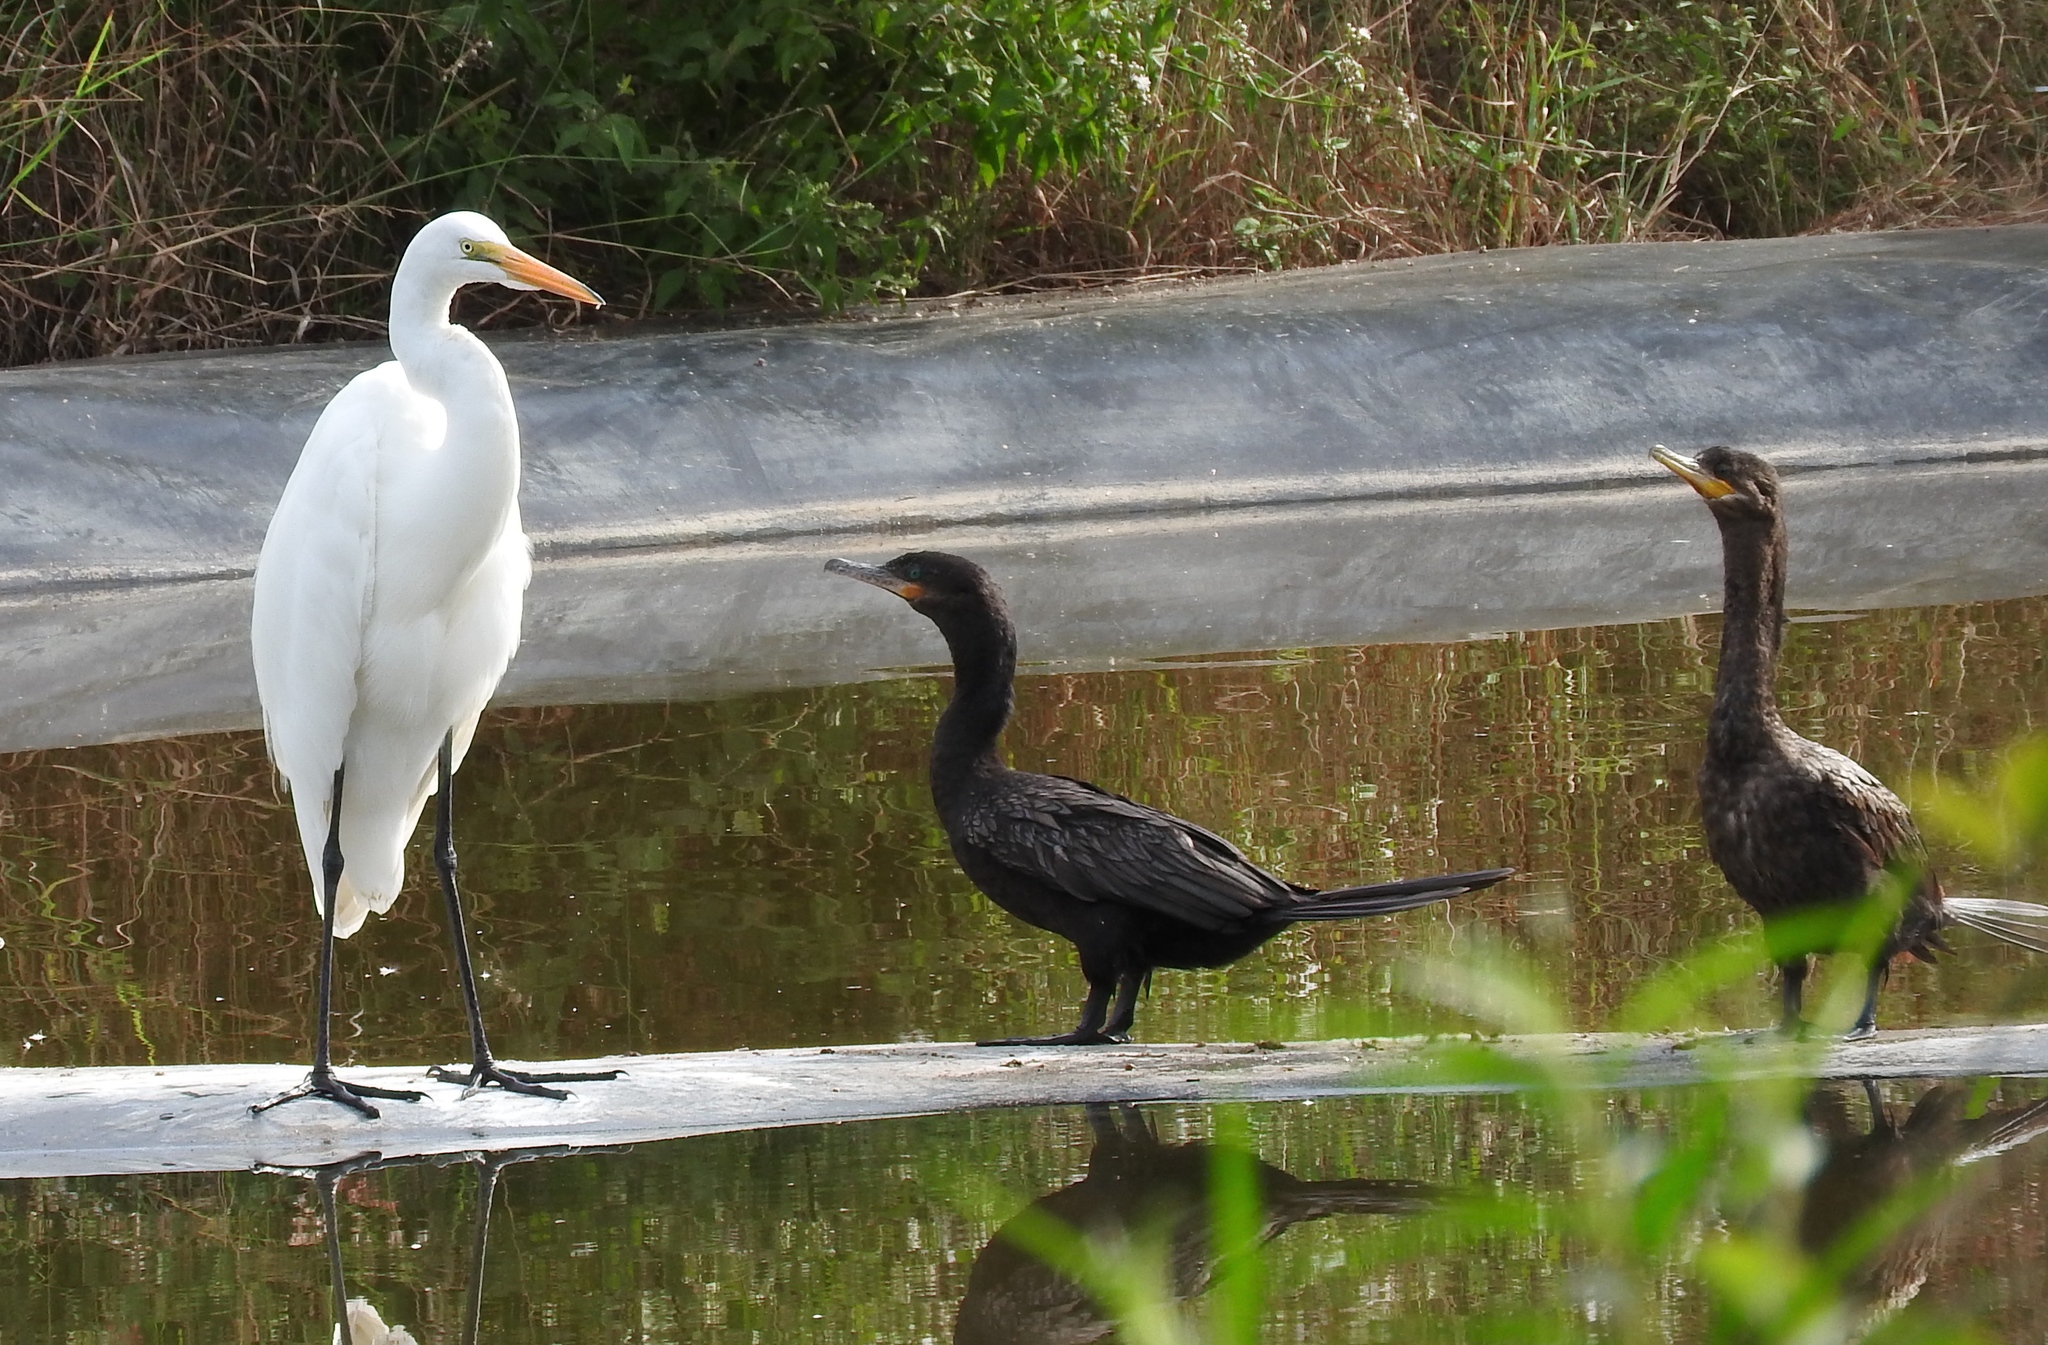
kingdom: Animalia
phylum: Chordata
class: Aves
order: Suliformes
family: Phalacrocoracidae
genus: Phalacrocorax
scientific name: Phalacrocorax brasilianus
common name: Neotropic cormorant
